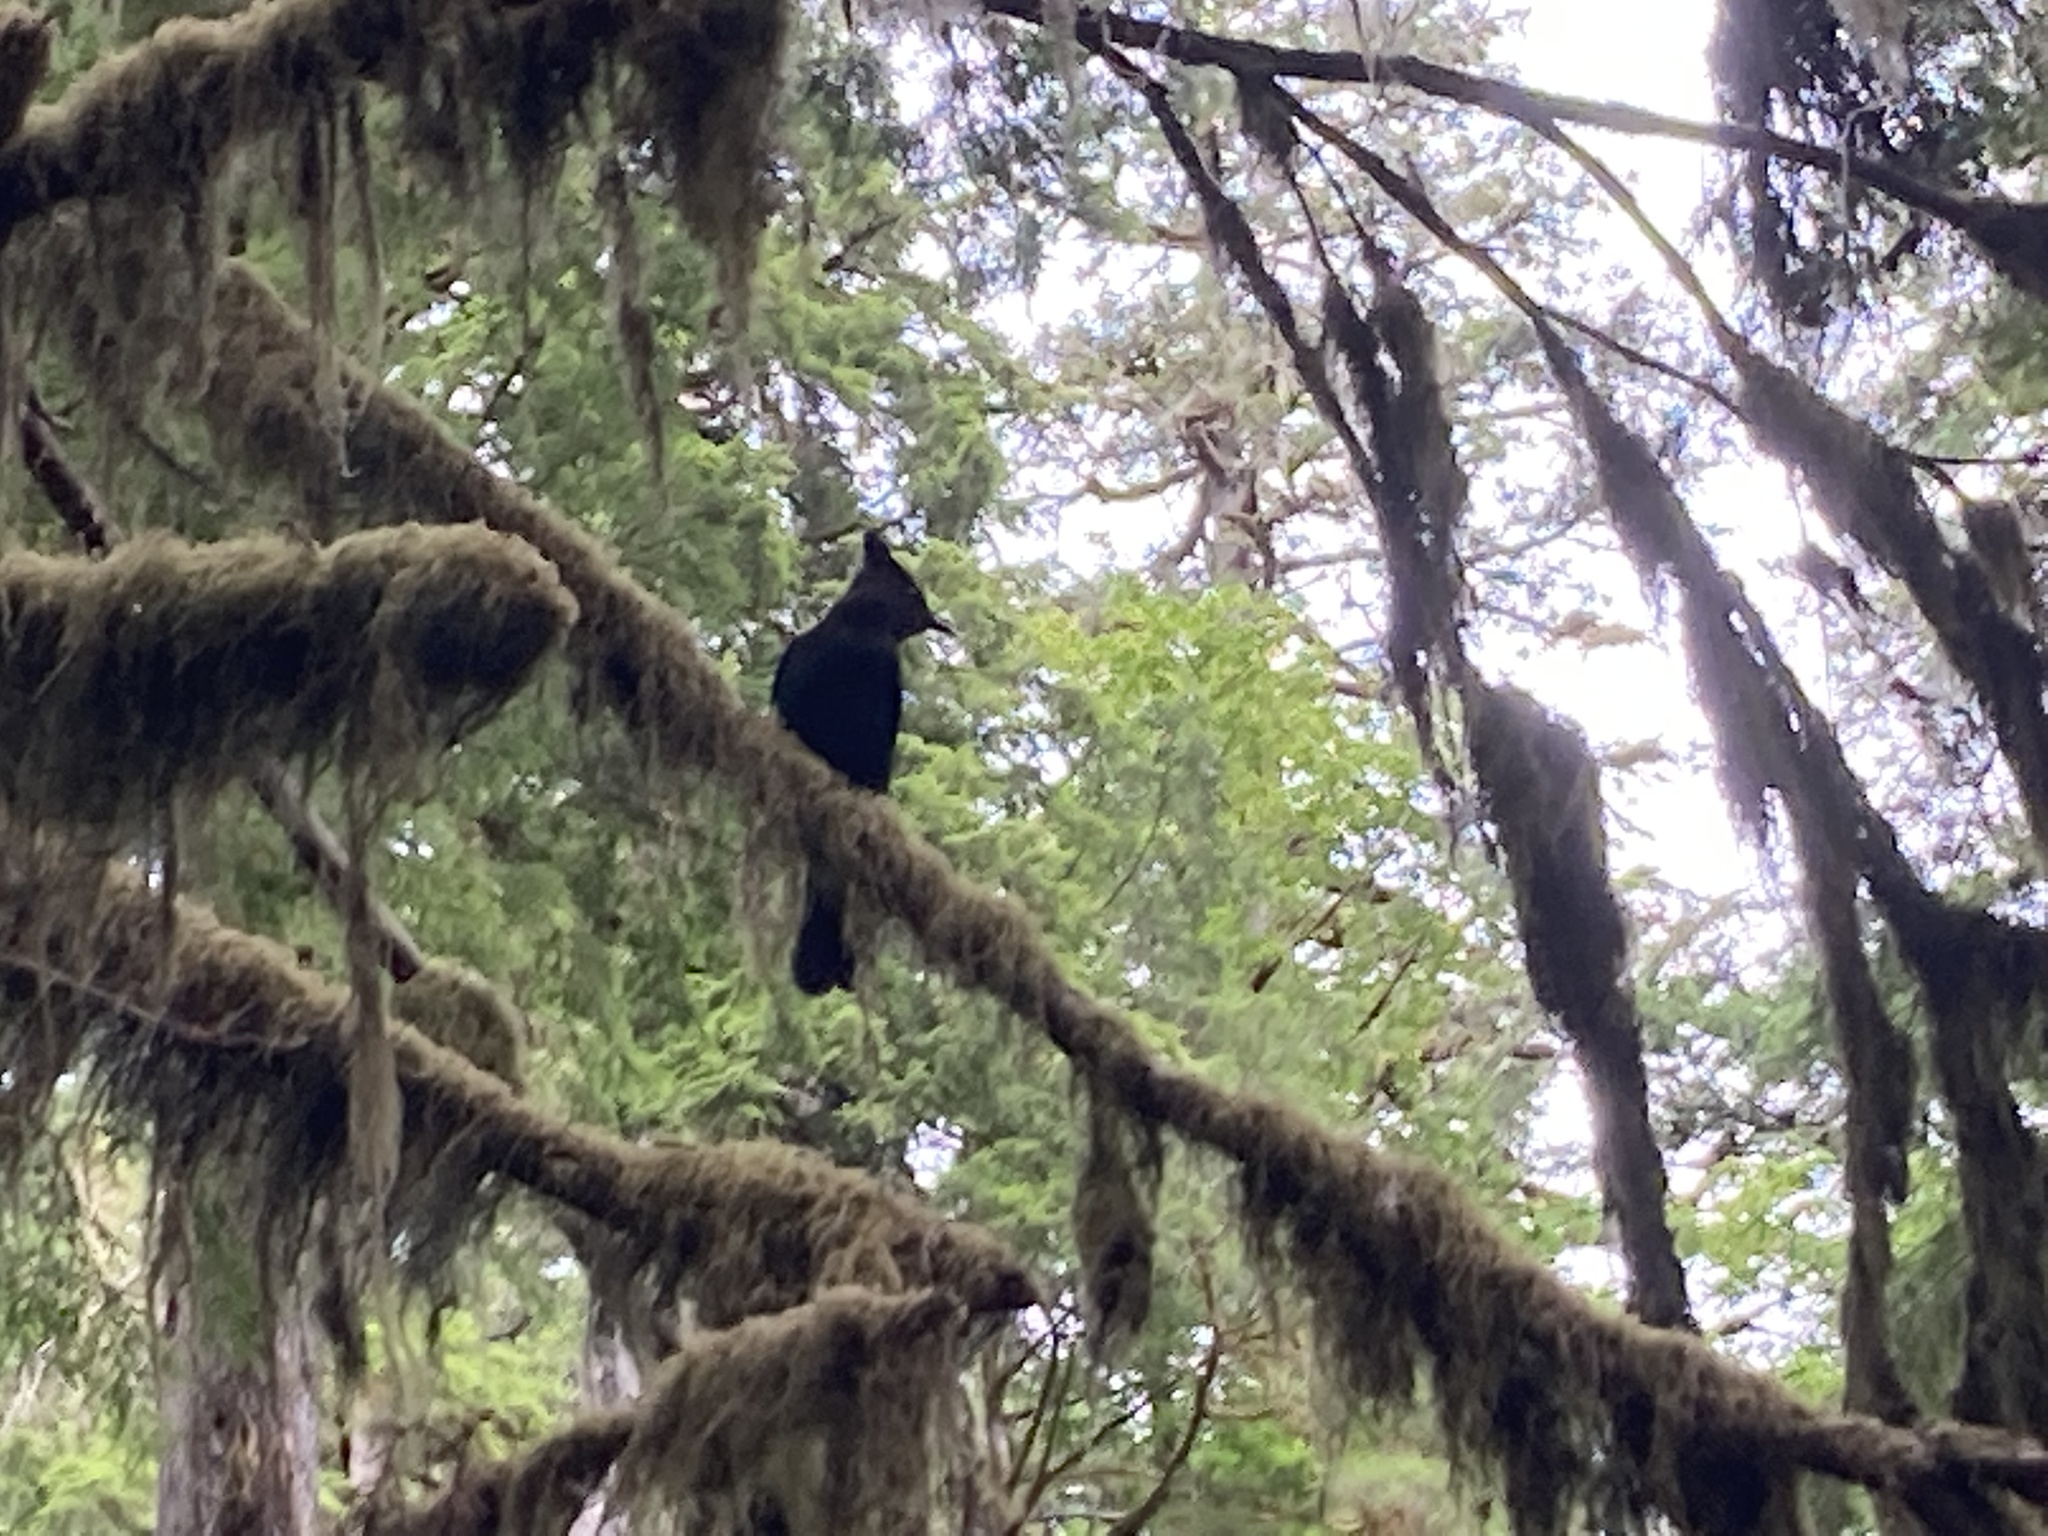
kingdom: Animalia
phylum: Chordata
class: Aves
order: Passeriformes
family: Corvidae
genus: Cyanocitta
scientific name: Cyanocitta stelleri
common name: Steller's jay
